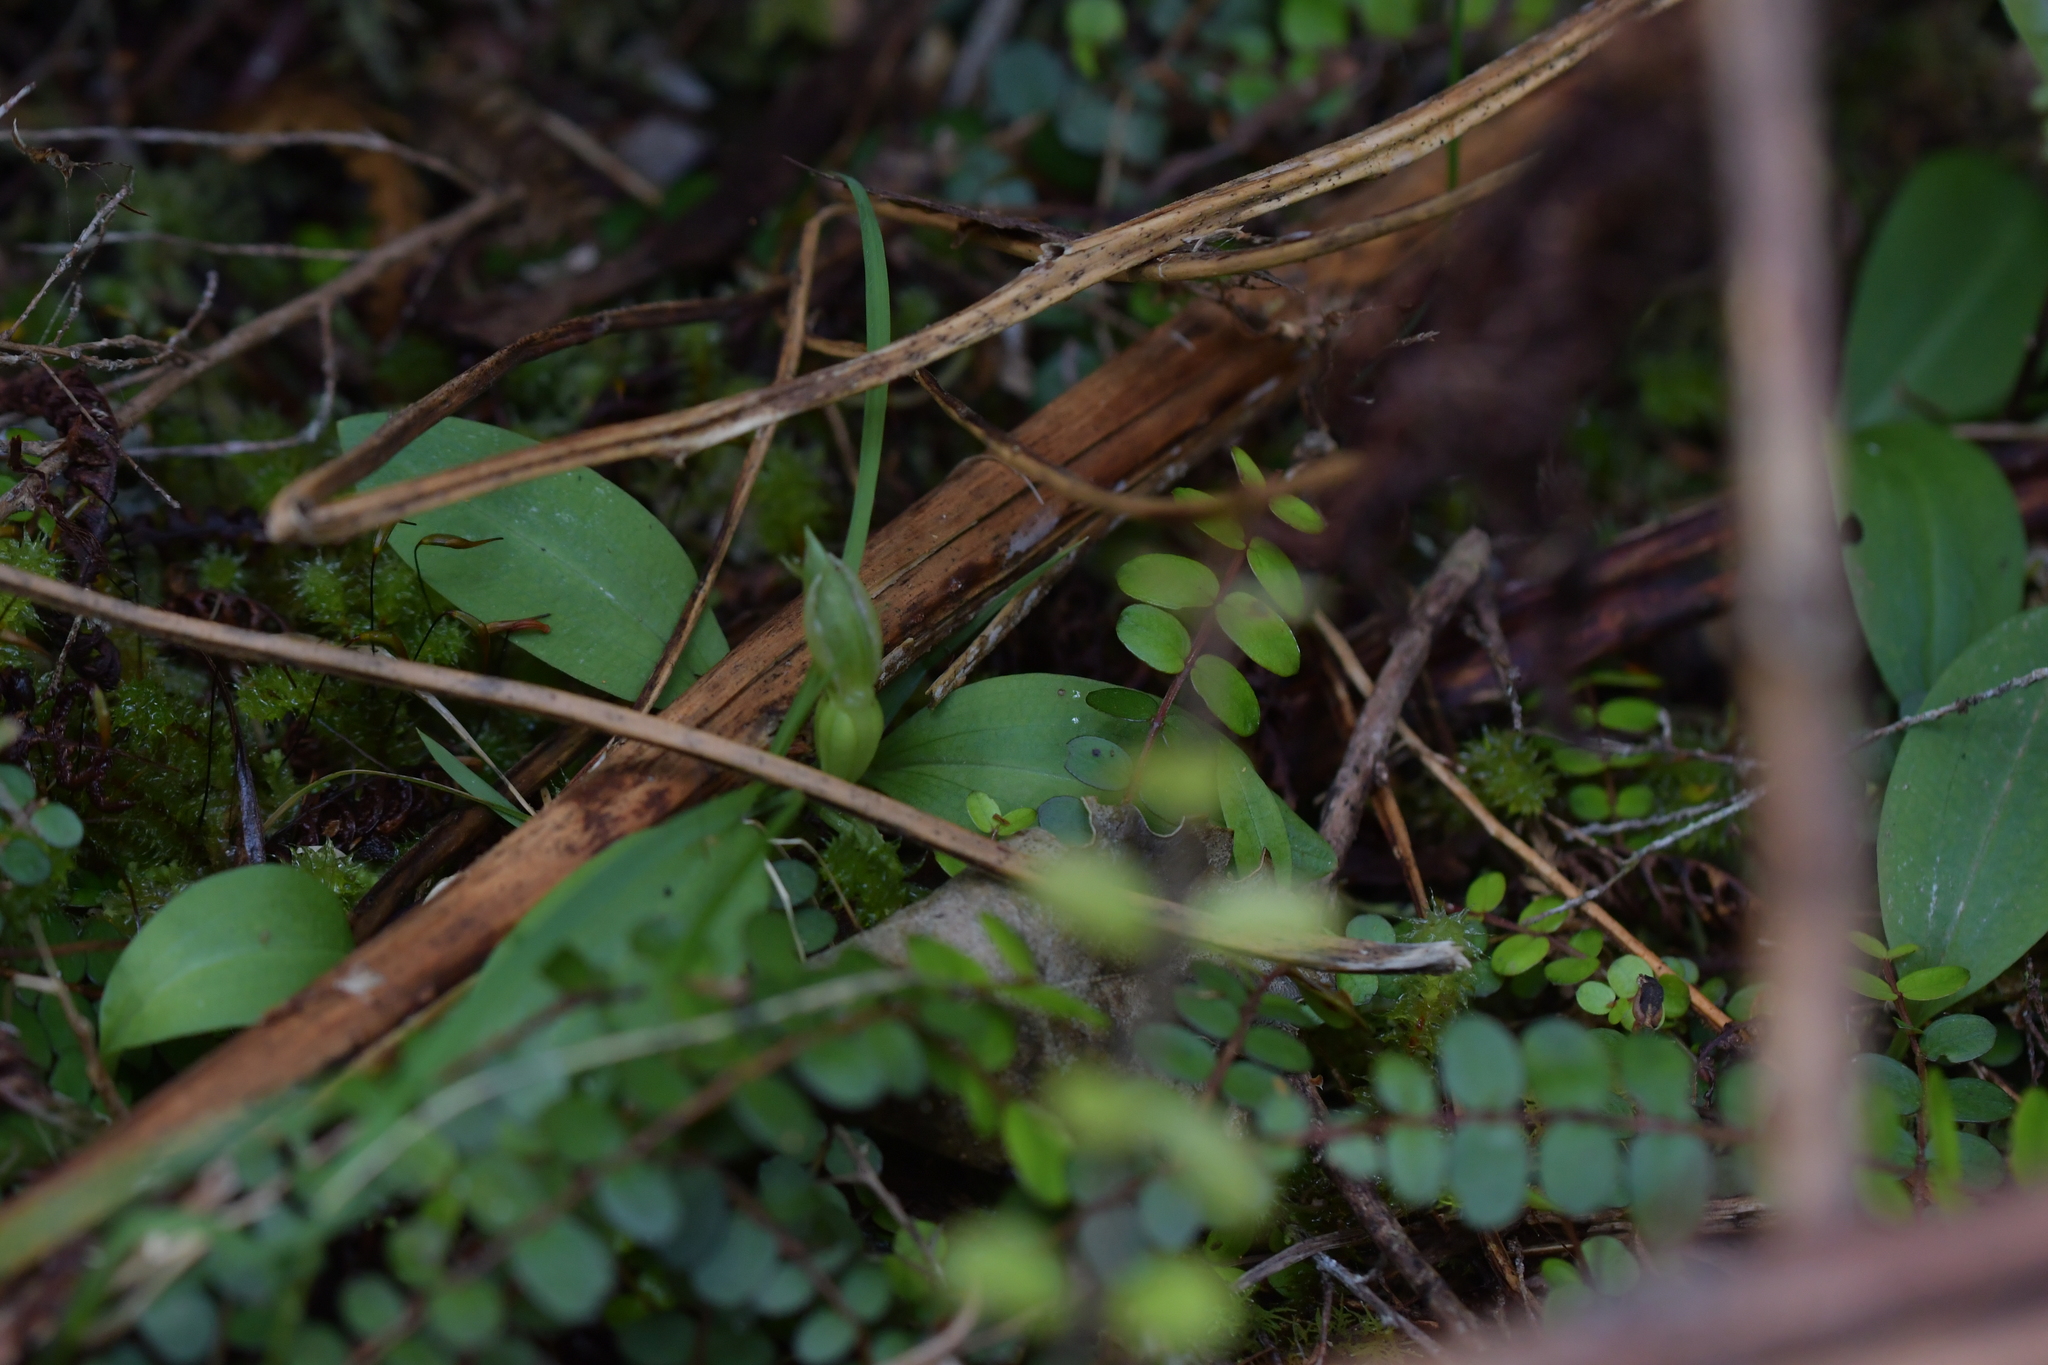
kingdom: Plantae
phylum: Tracheophyta
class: Liliopsida
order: Asparagales
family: Orchidaceae
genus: Chiloglottis
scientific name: Chiloglottis cornuta
